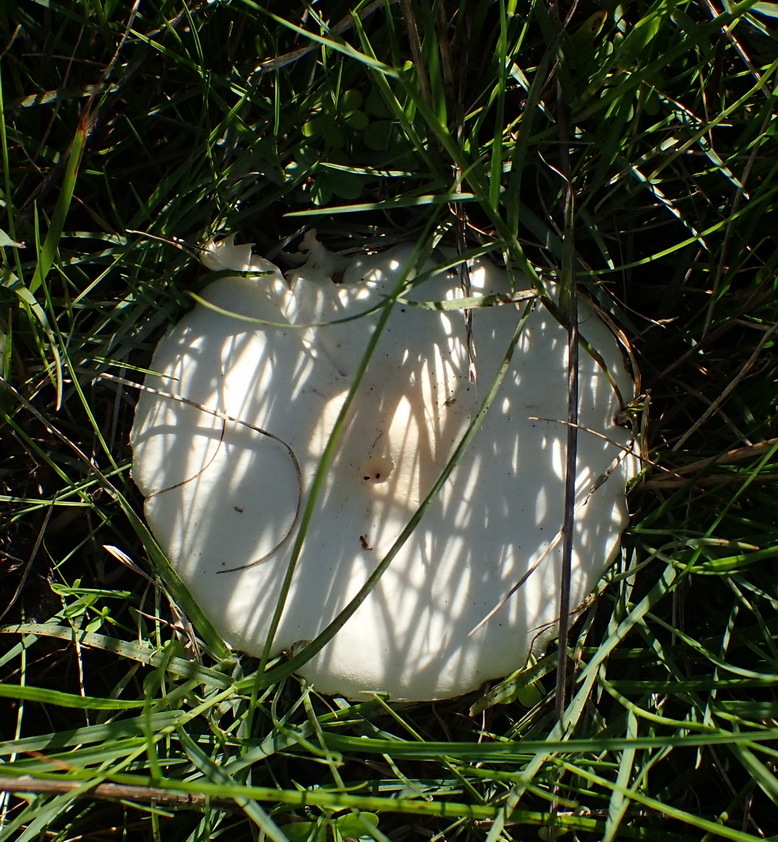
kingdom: Fungi
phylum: Basidiomycota
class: Agaricomycetes
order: Agaricales
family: Agaricaceae
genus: Leucoagaricus
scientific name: Leucoagaricus leucothites
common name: White dapperling
